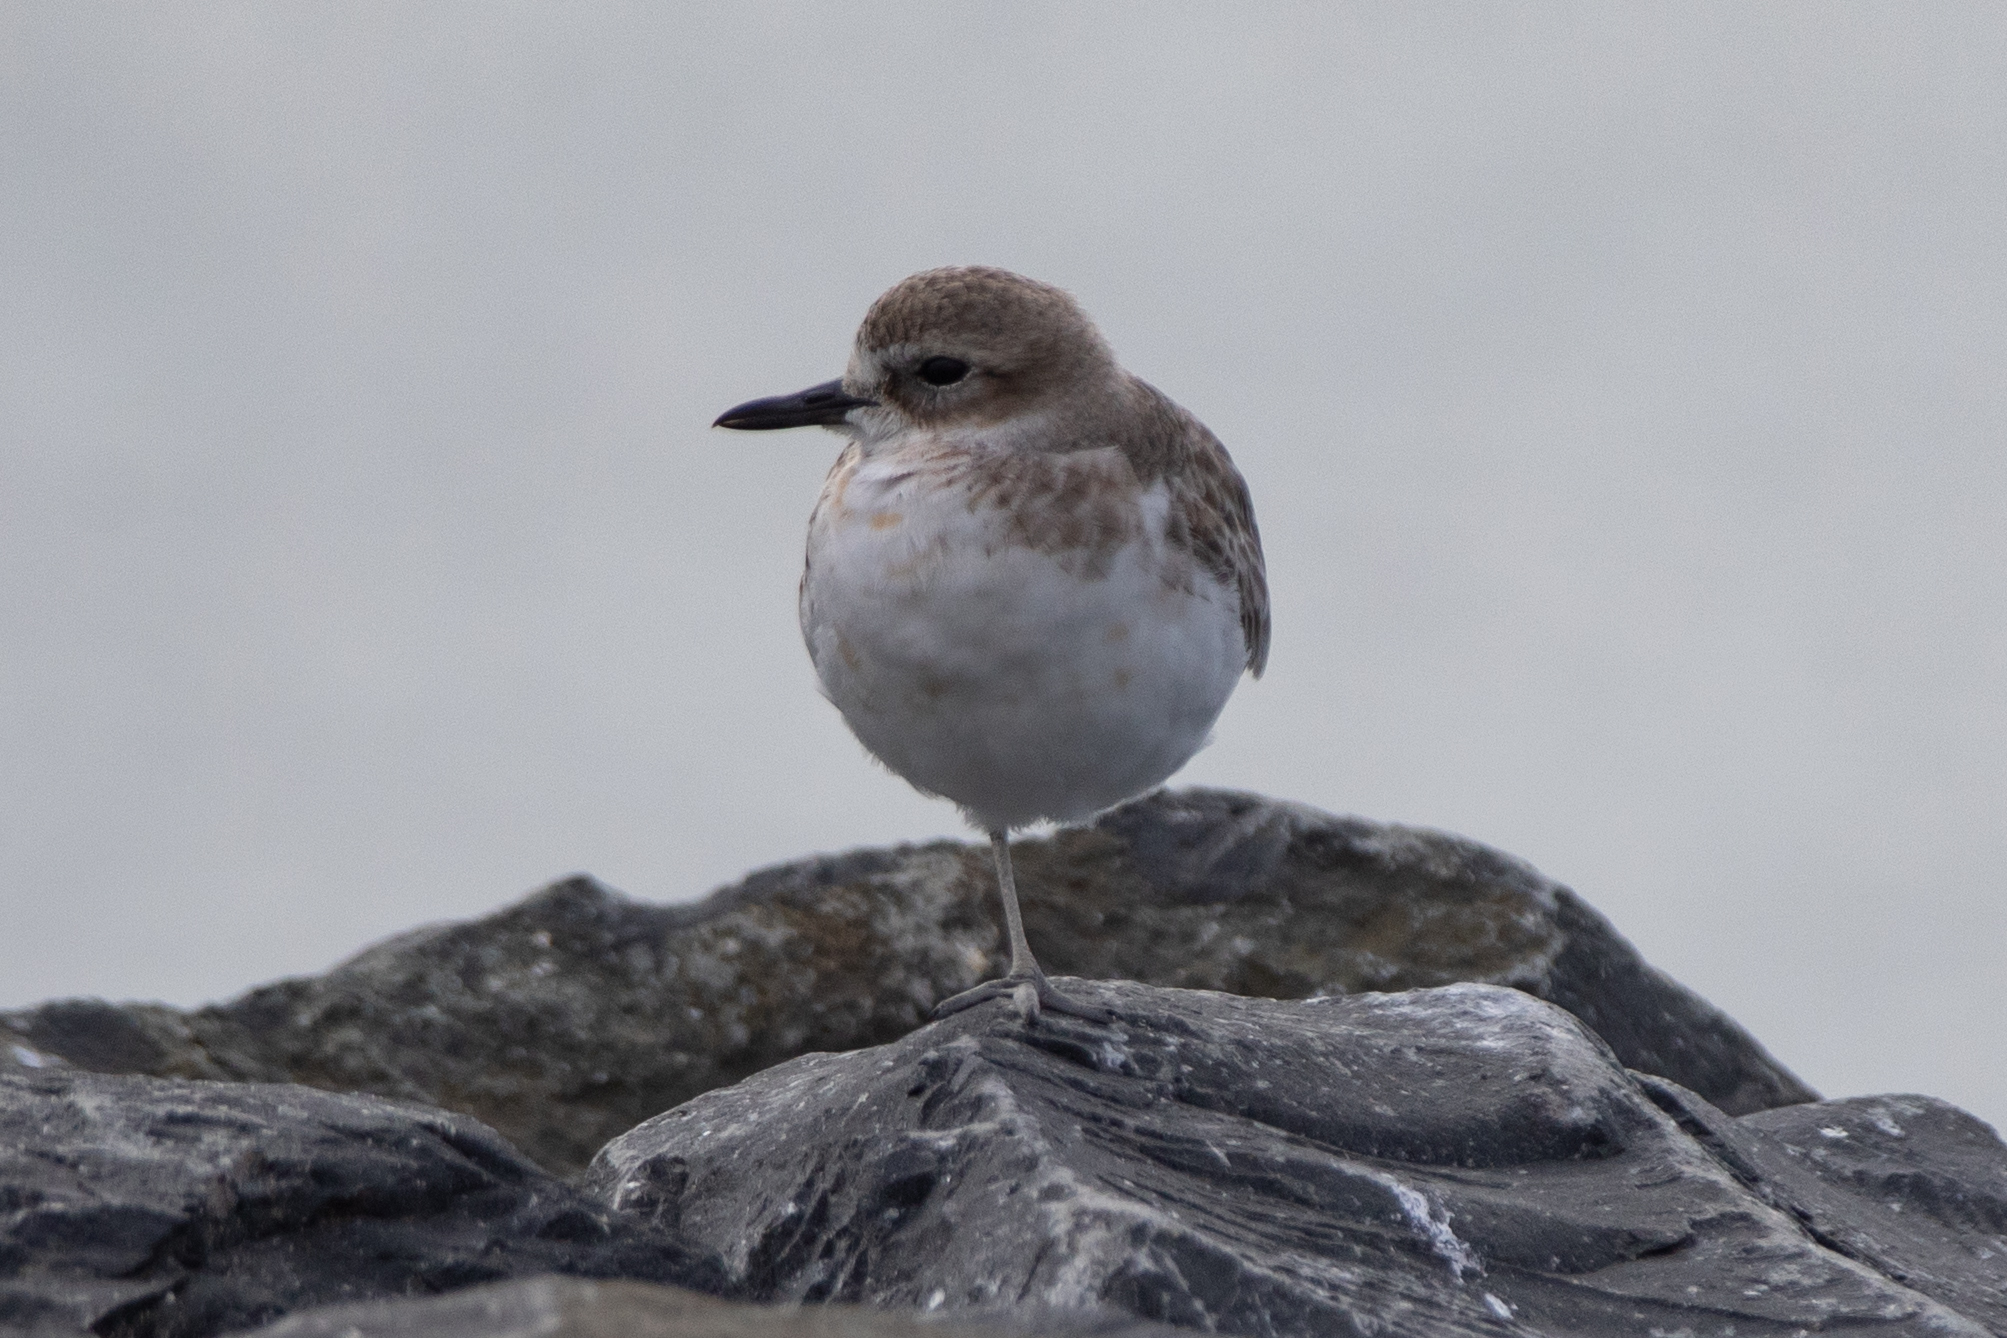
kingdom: Animalia
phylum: Chordata
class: Aves
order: Charadriiformes
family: Charadriidae
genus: Anarhynchus
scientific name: Anarhynchus
